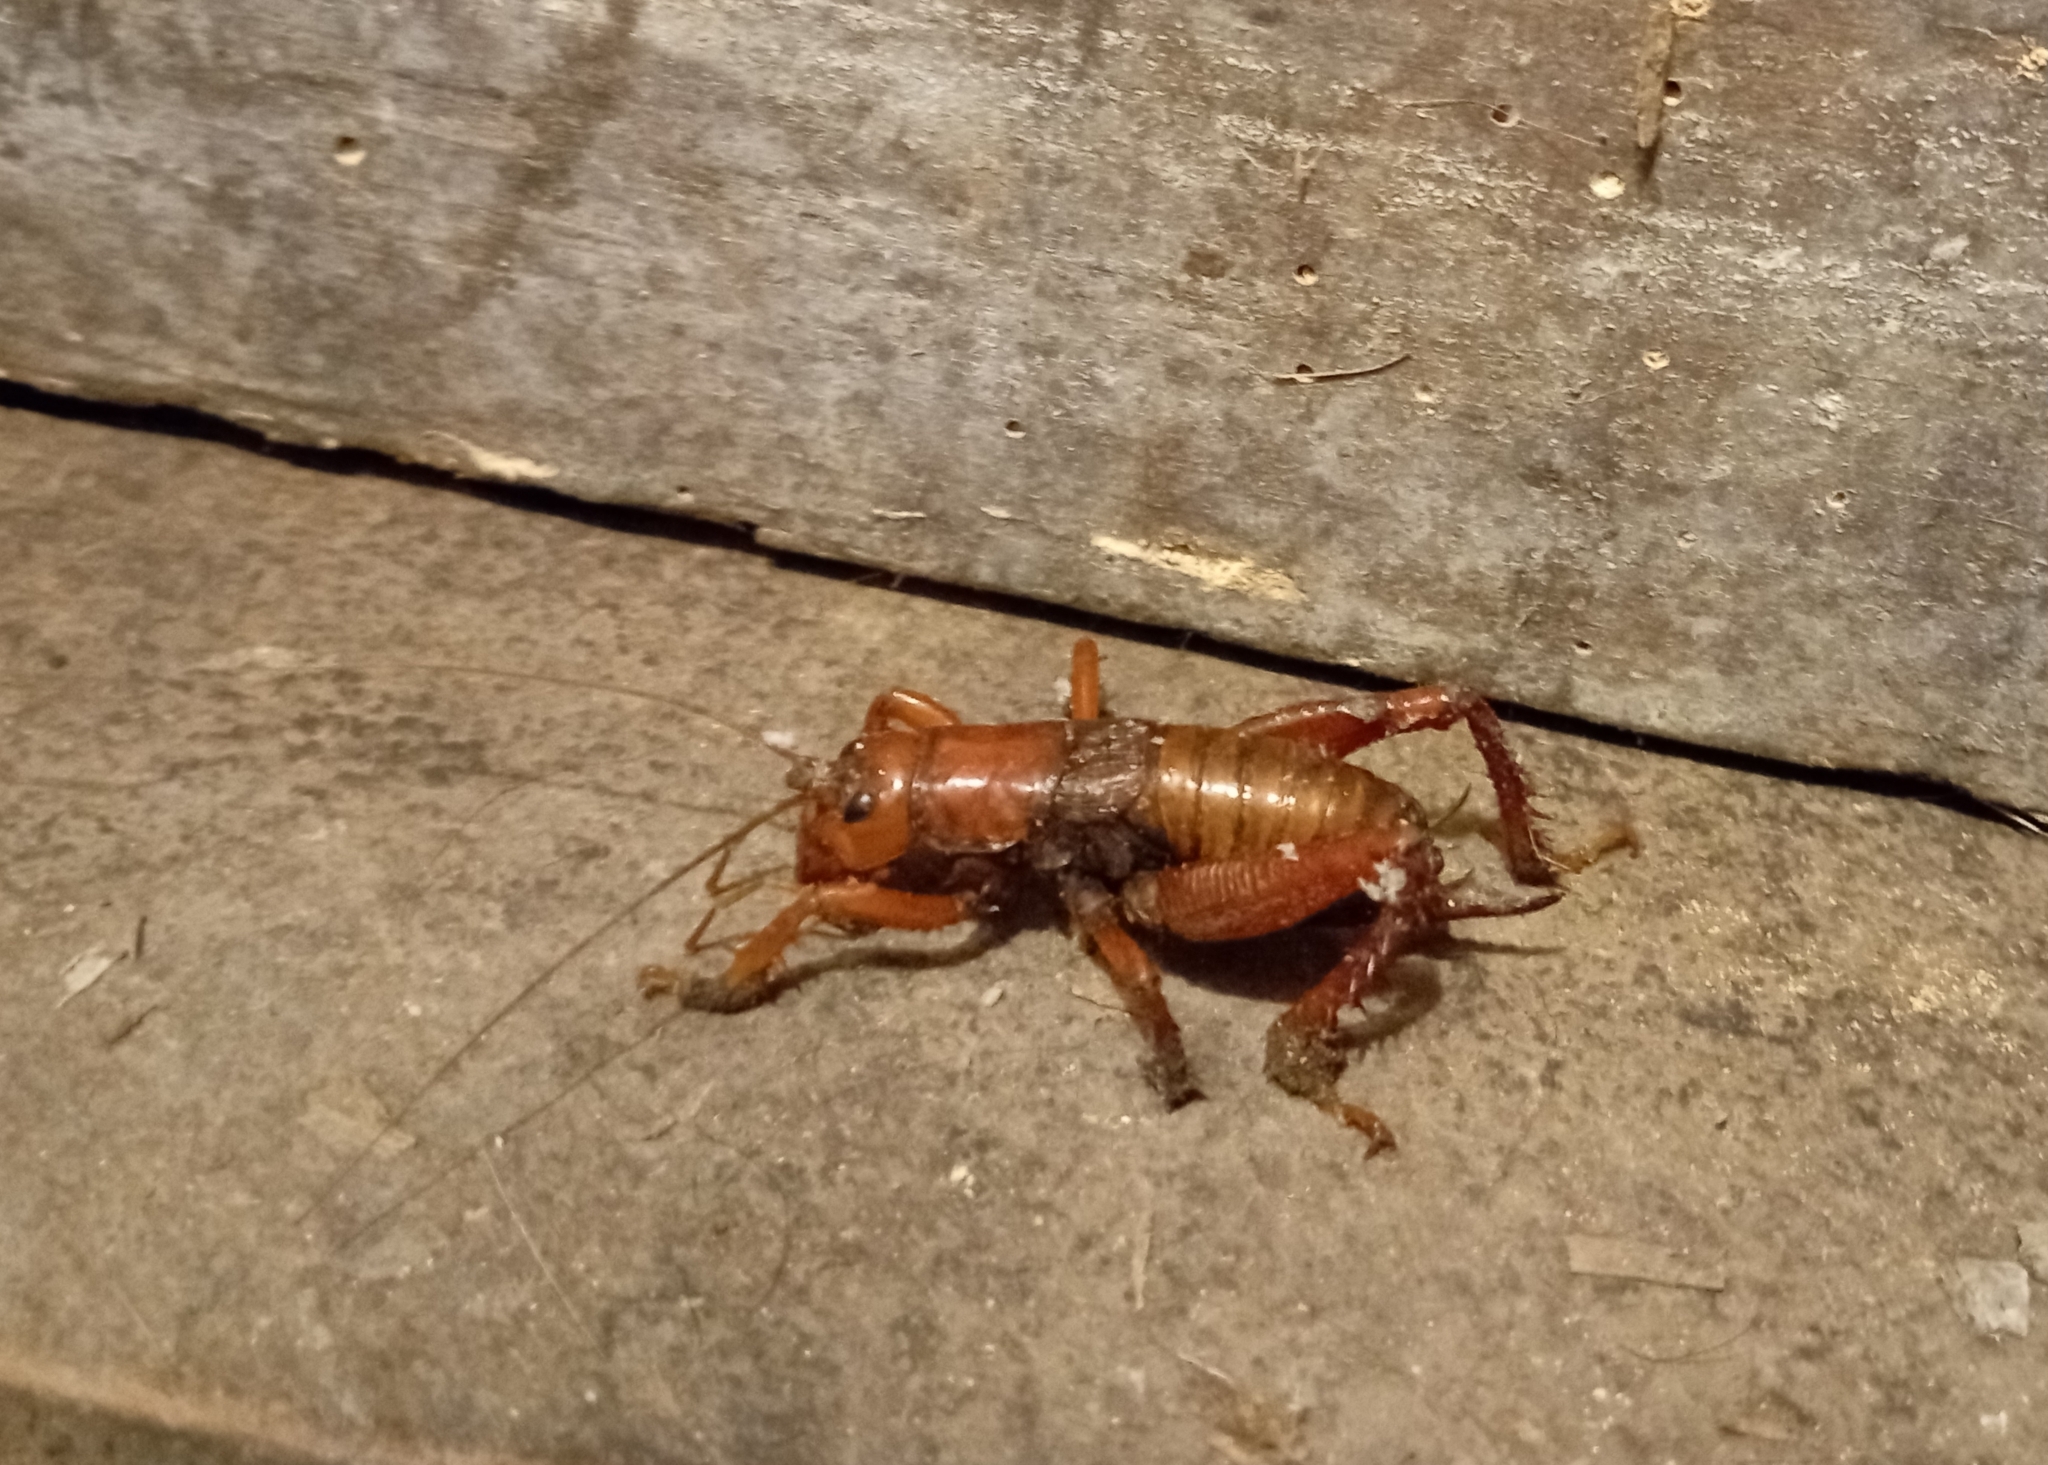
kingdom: Animalia
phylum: Arthropoda
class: Insecta
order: Orthoptera
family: Anostostomatidae
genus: Cratomelus
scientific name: Cratomelus armatus
